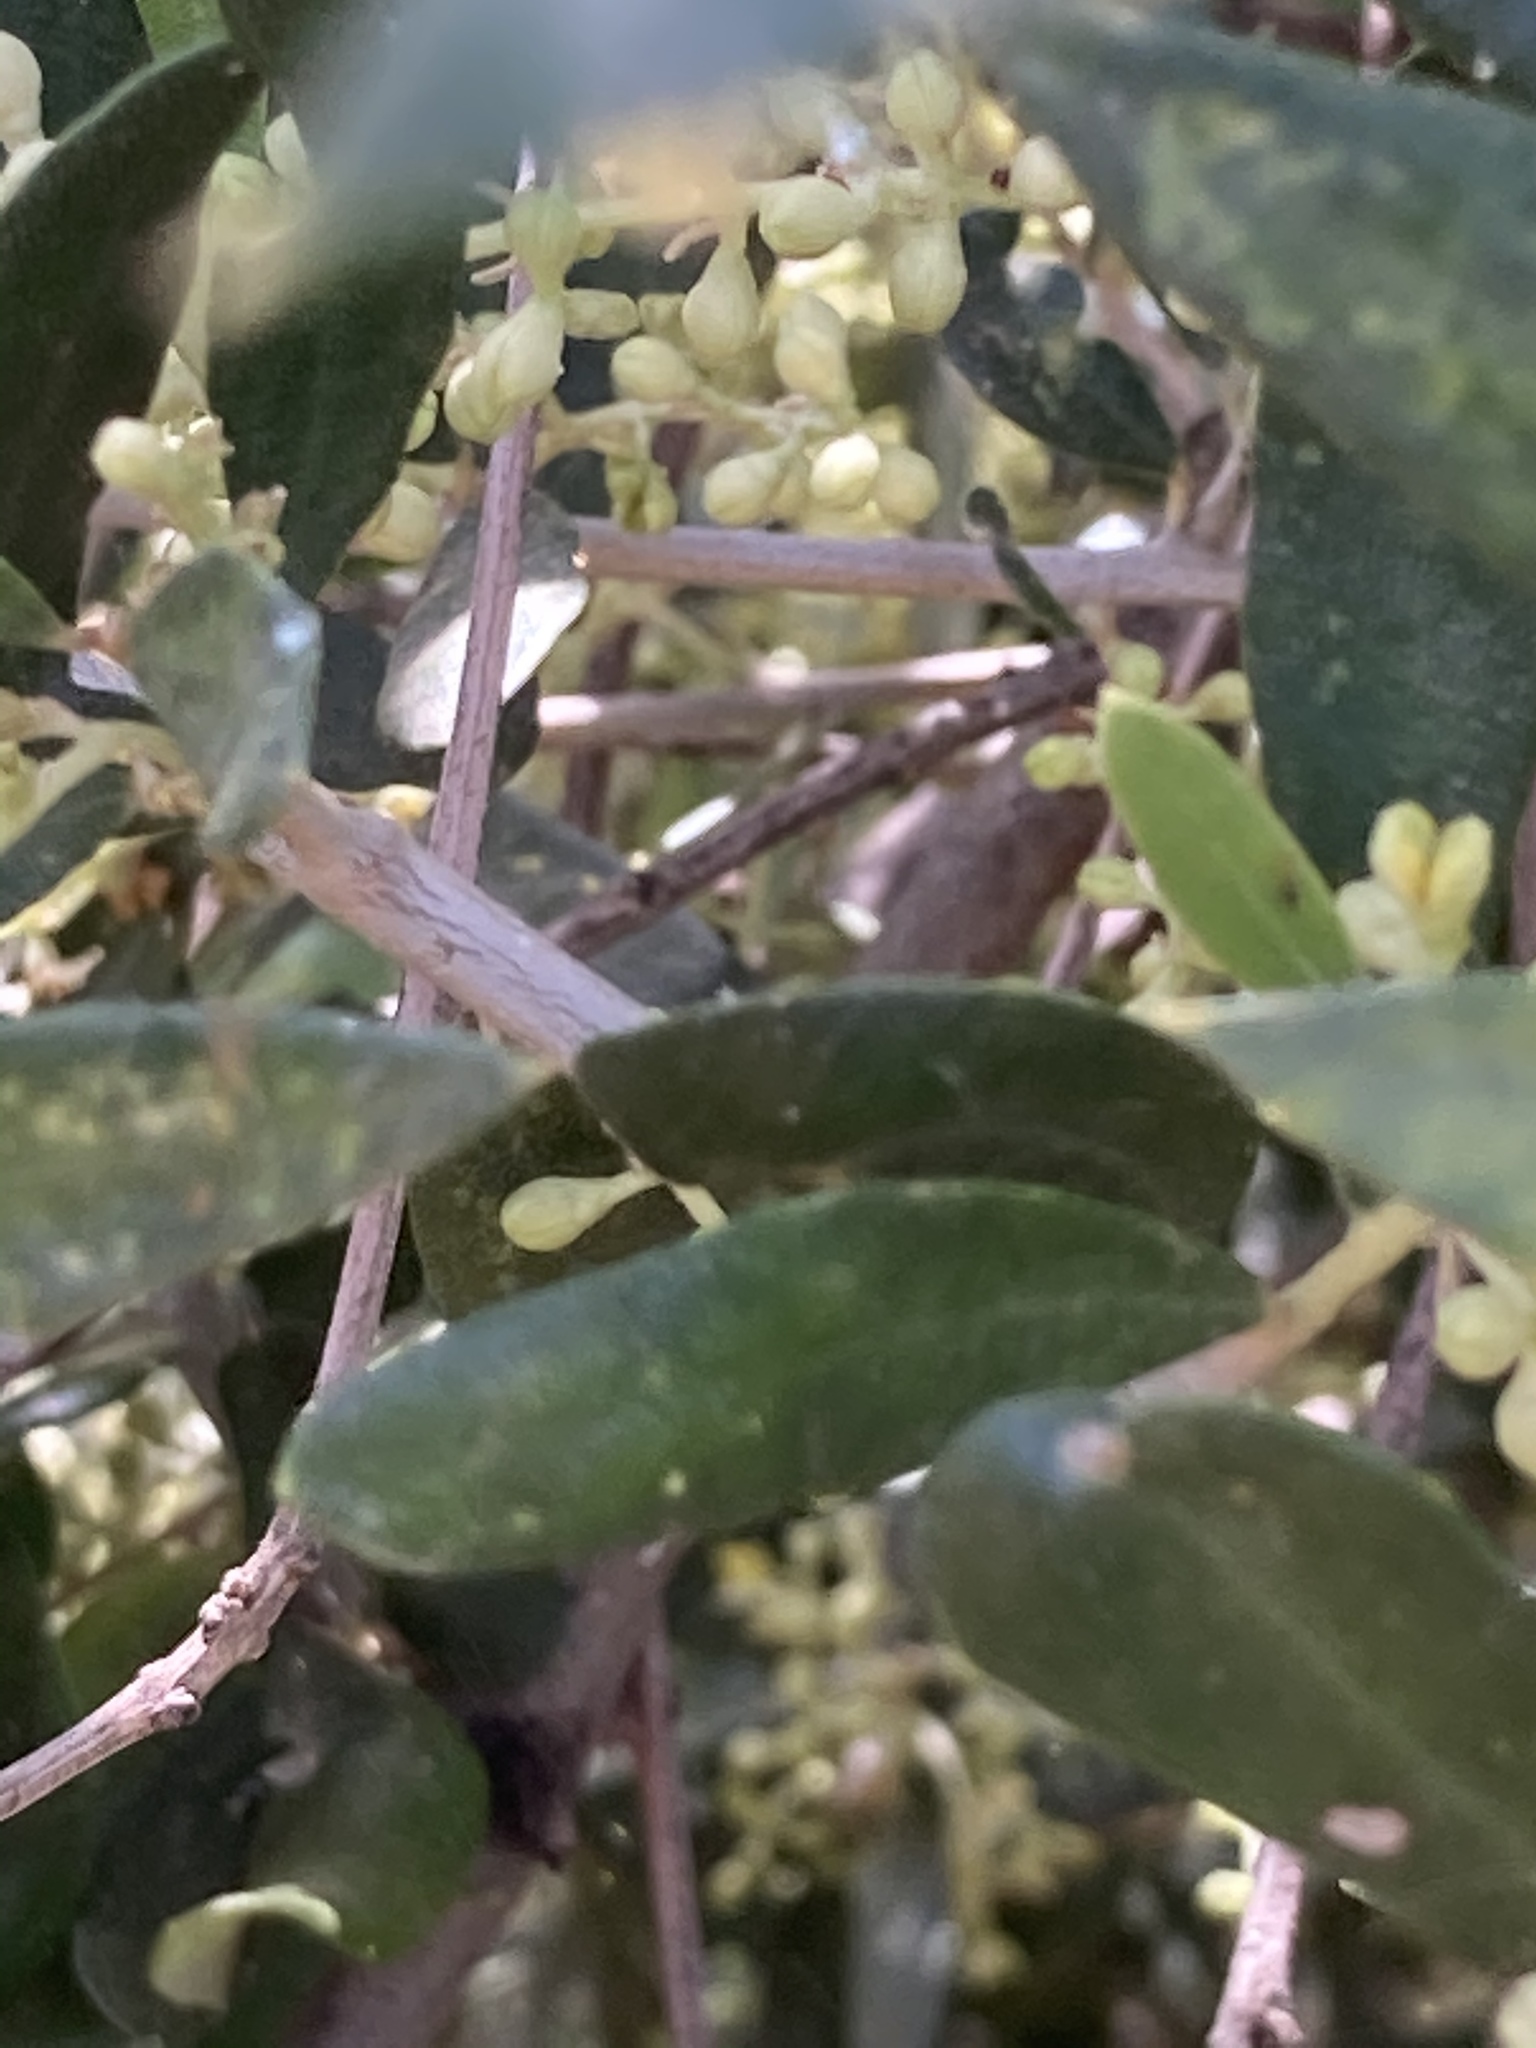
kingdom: Plantae
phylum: Tracheophyta
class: Magnoliopsida
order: Lamiales
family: Oleaceae
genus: Olea
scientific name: Olea europaea
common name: Olive
